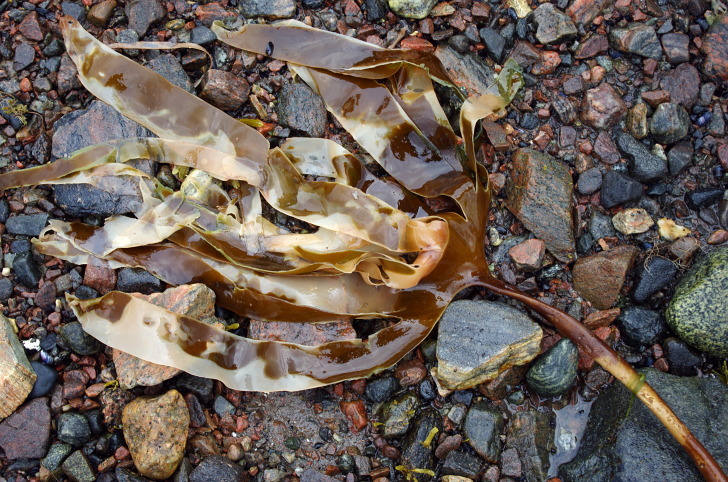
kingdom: Chromista
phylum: Ochrophyta
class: Phaeophyceae
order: Laminariales
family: Laminariaceae
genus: Laminaria
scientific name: Laminaria digitata
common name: Oarweed
